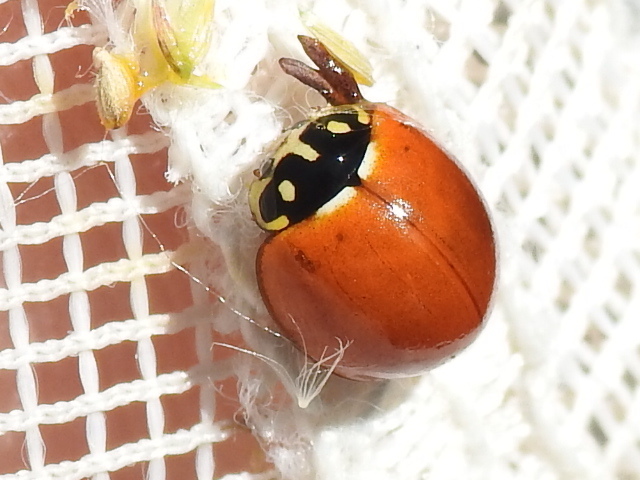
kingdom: Animalia
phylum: Arthropoda
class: Insecta
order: Coleoptera
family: Coccinellidae
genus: Cycloneda
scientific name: Cycloneda sanguinea
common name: Ladybird beetle
